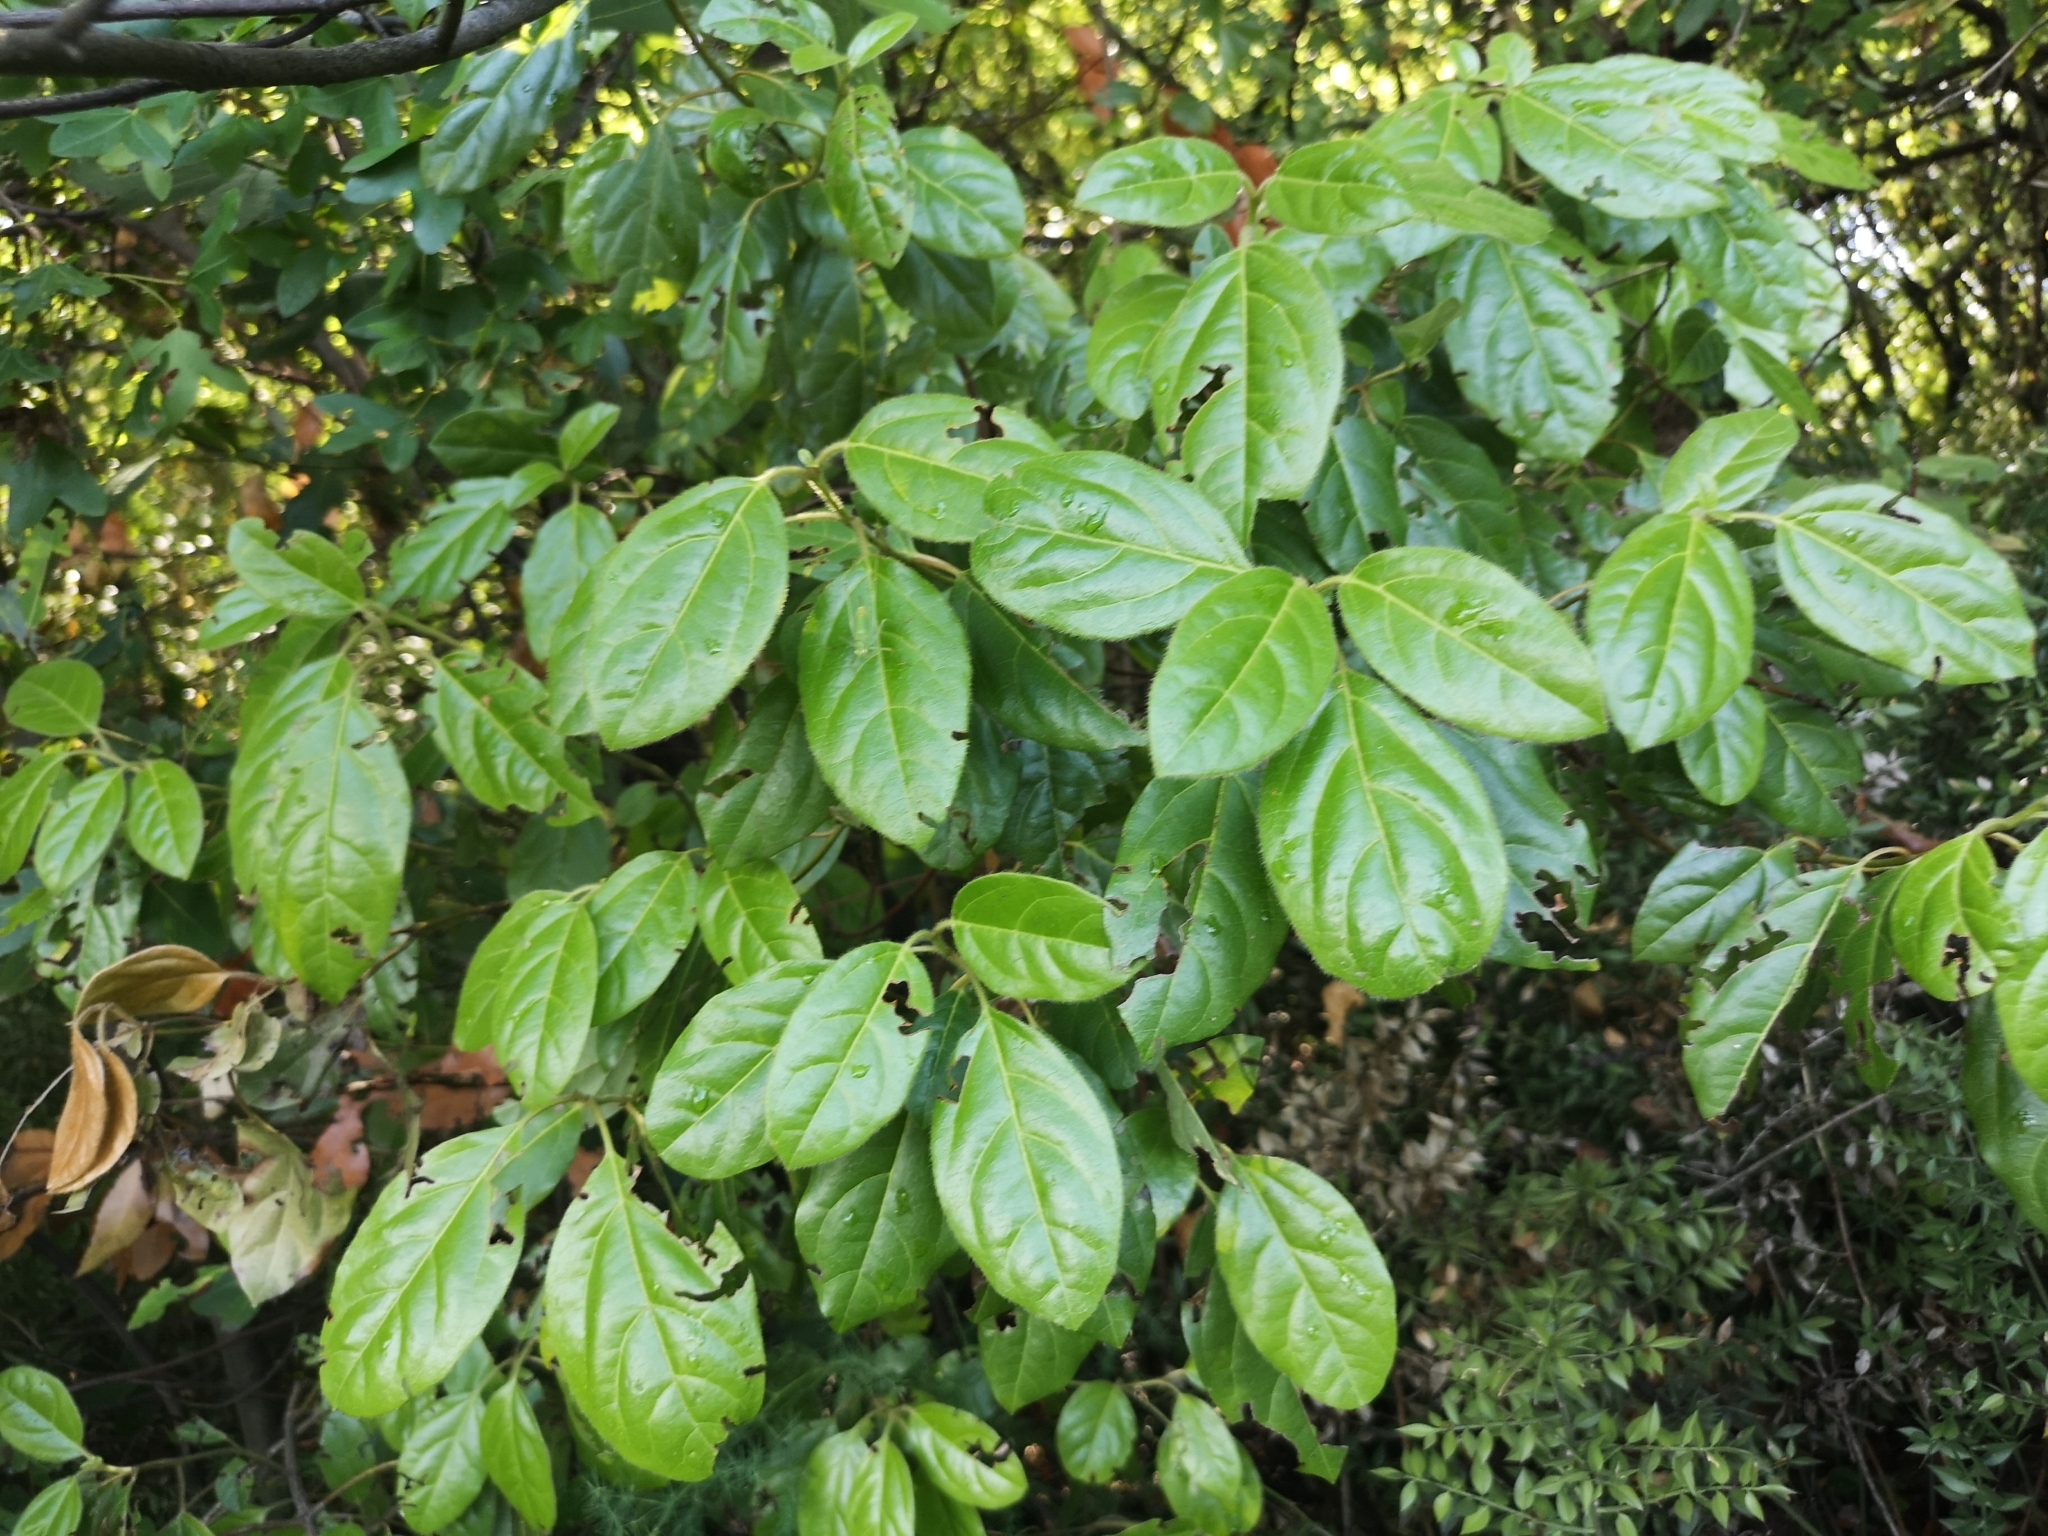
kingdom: Plantae
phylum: Tracheophyta
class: Magnoliopsida
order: Dipsacales
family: Viburnaceae
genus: Viburnum
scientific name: Viburnum tinus
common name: Laurustinus
